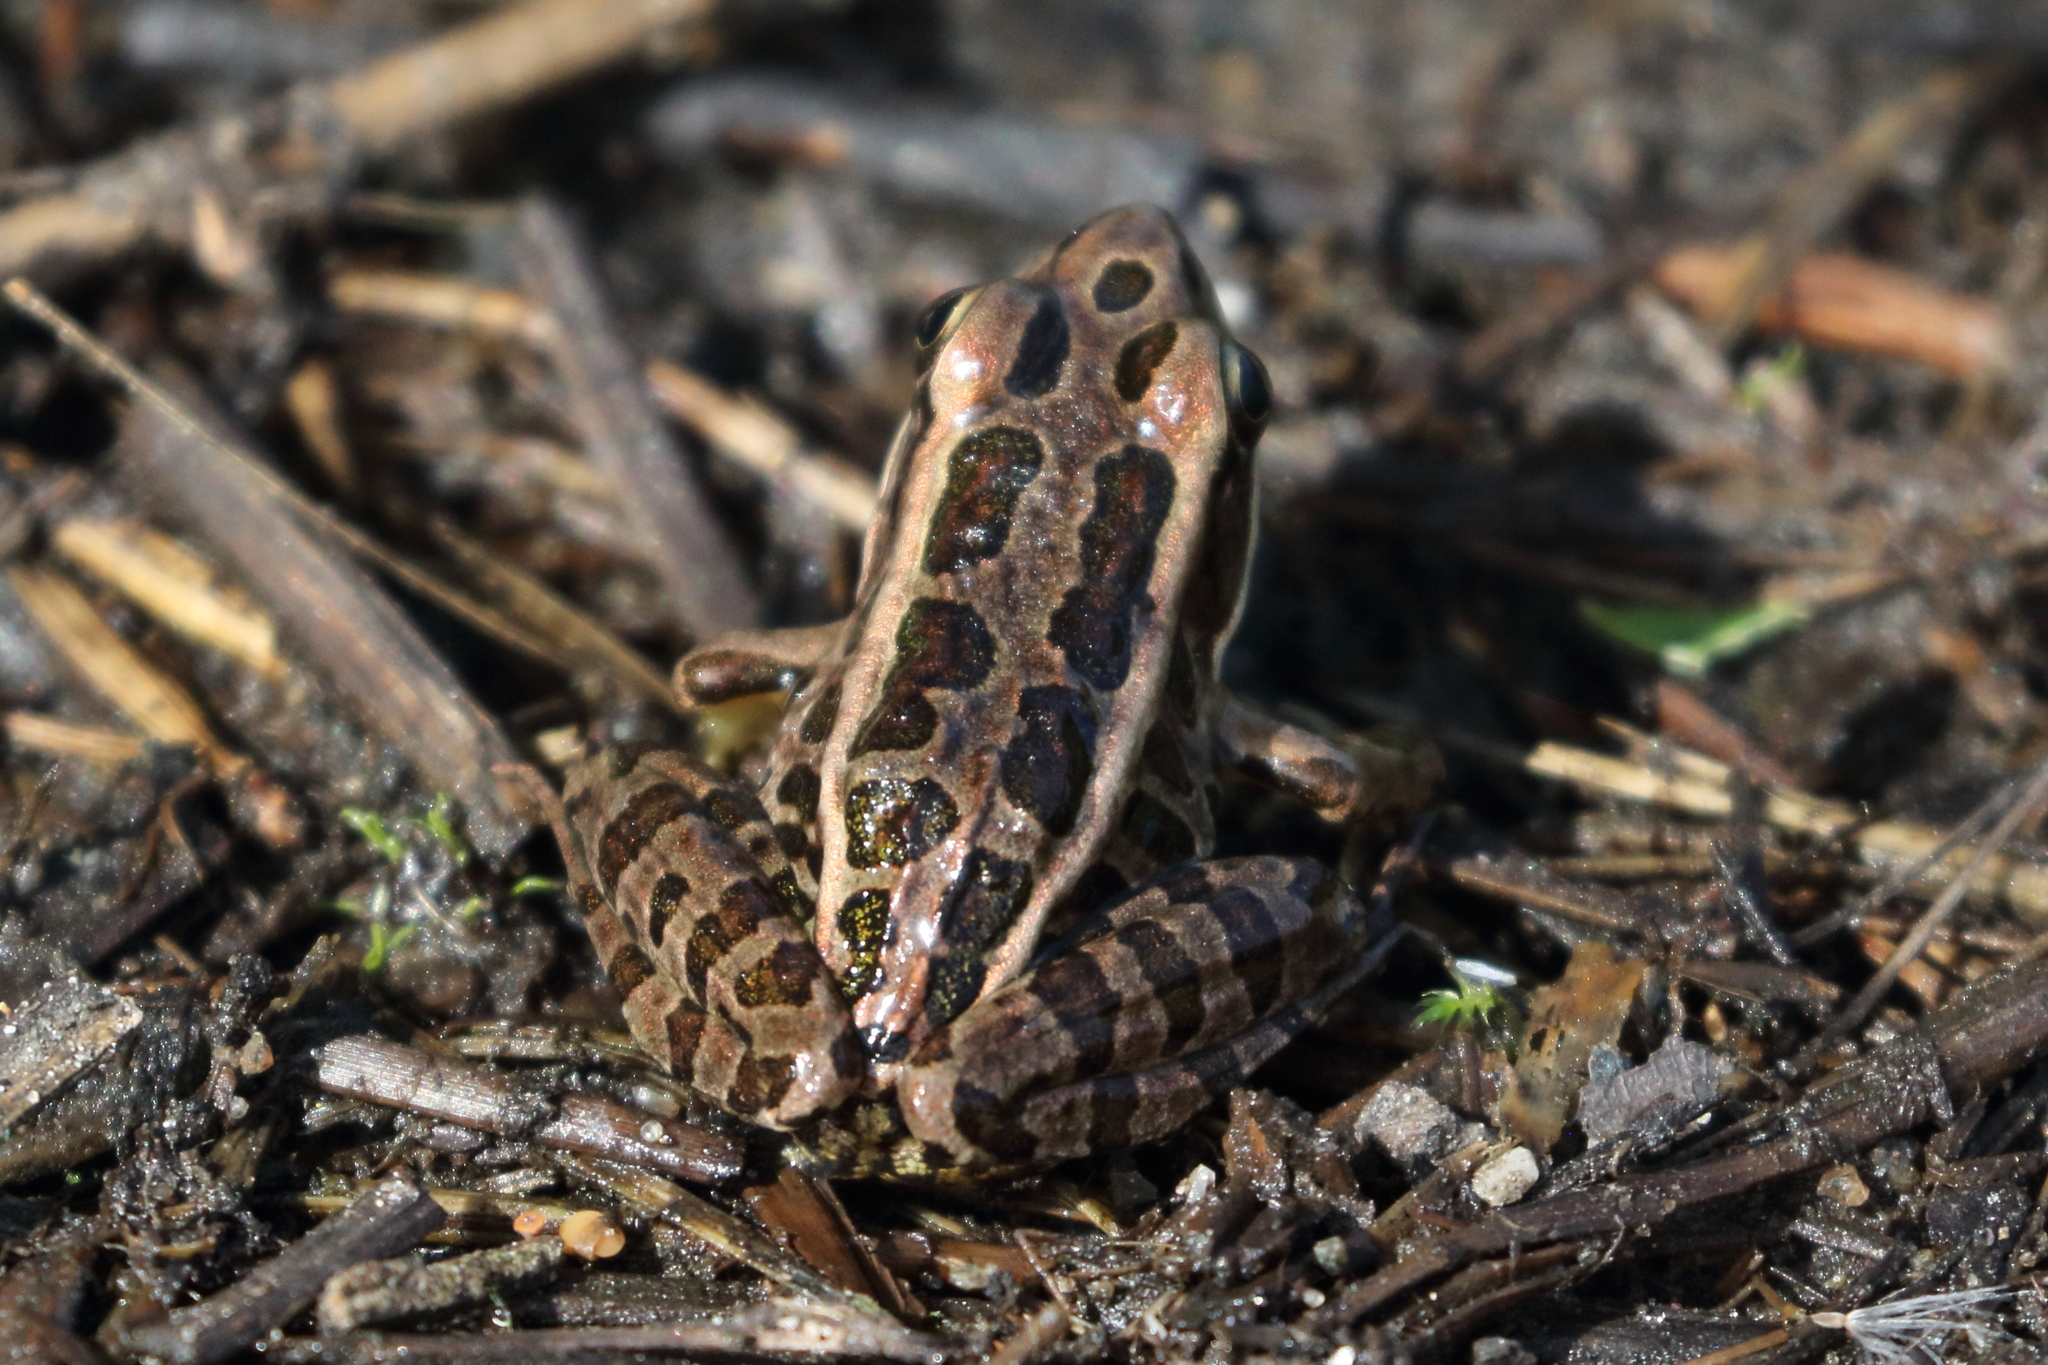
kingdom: Animalia
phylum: Chordata
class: Amphibia
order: Anura
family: Ranidae
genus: Lithobates
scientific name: Lithobates palustris
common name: Pickerel frog
